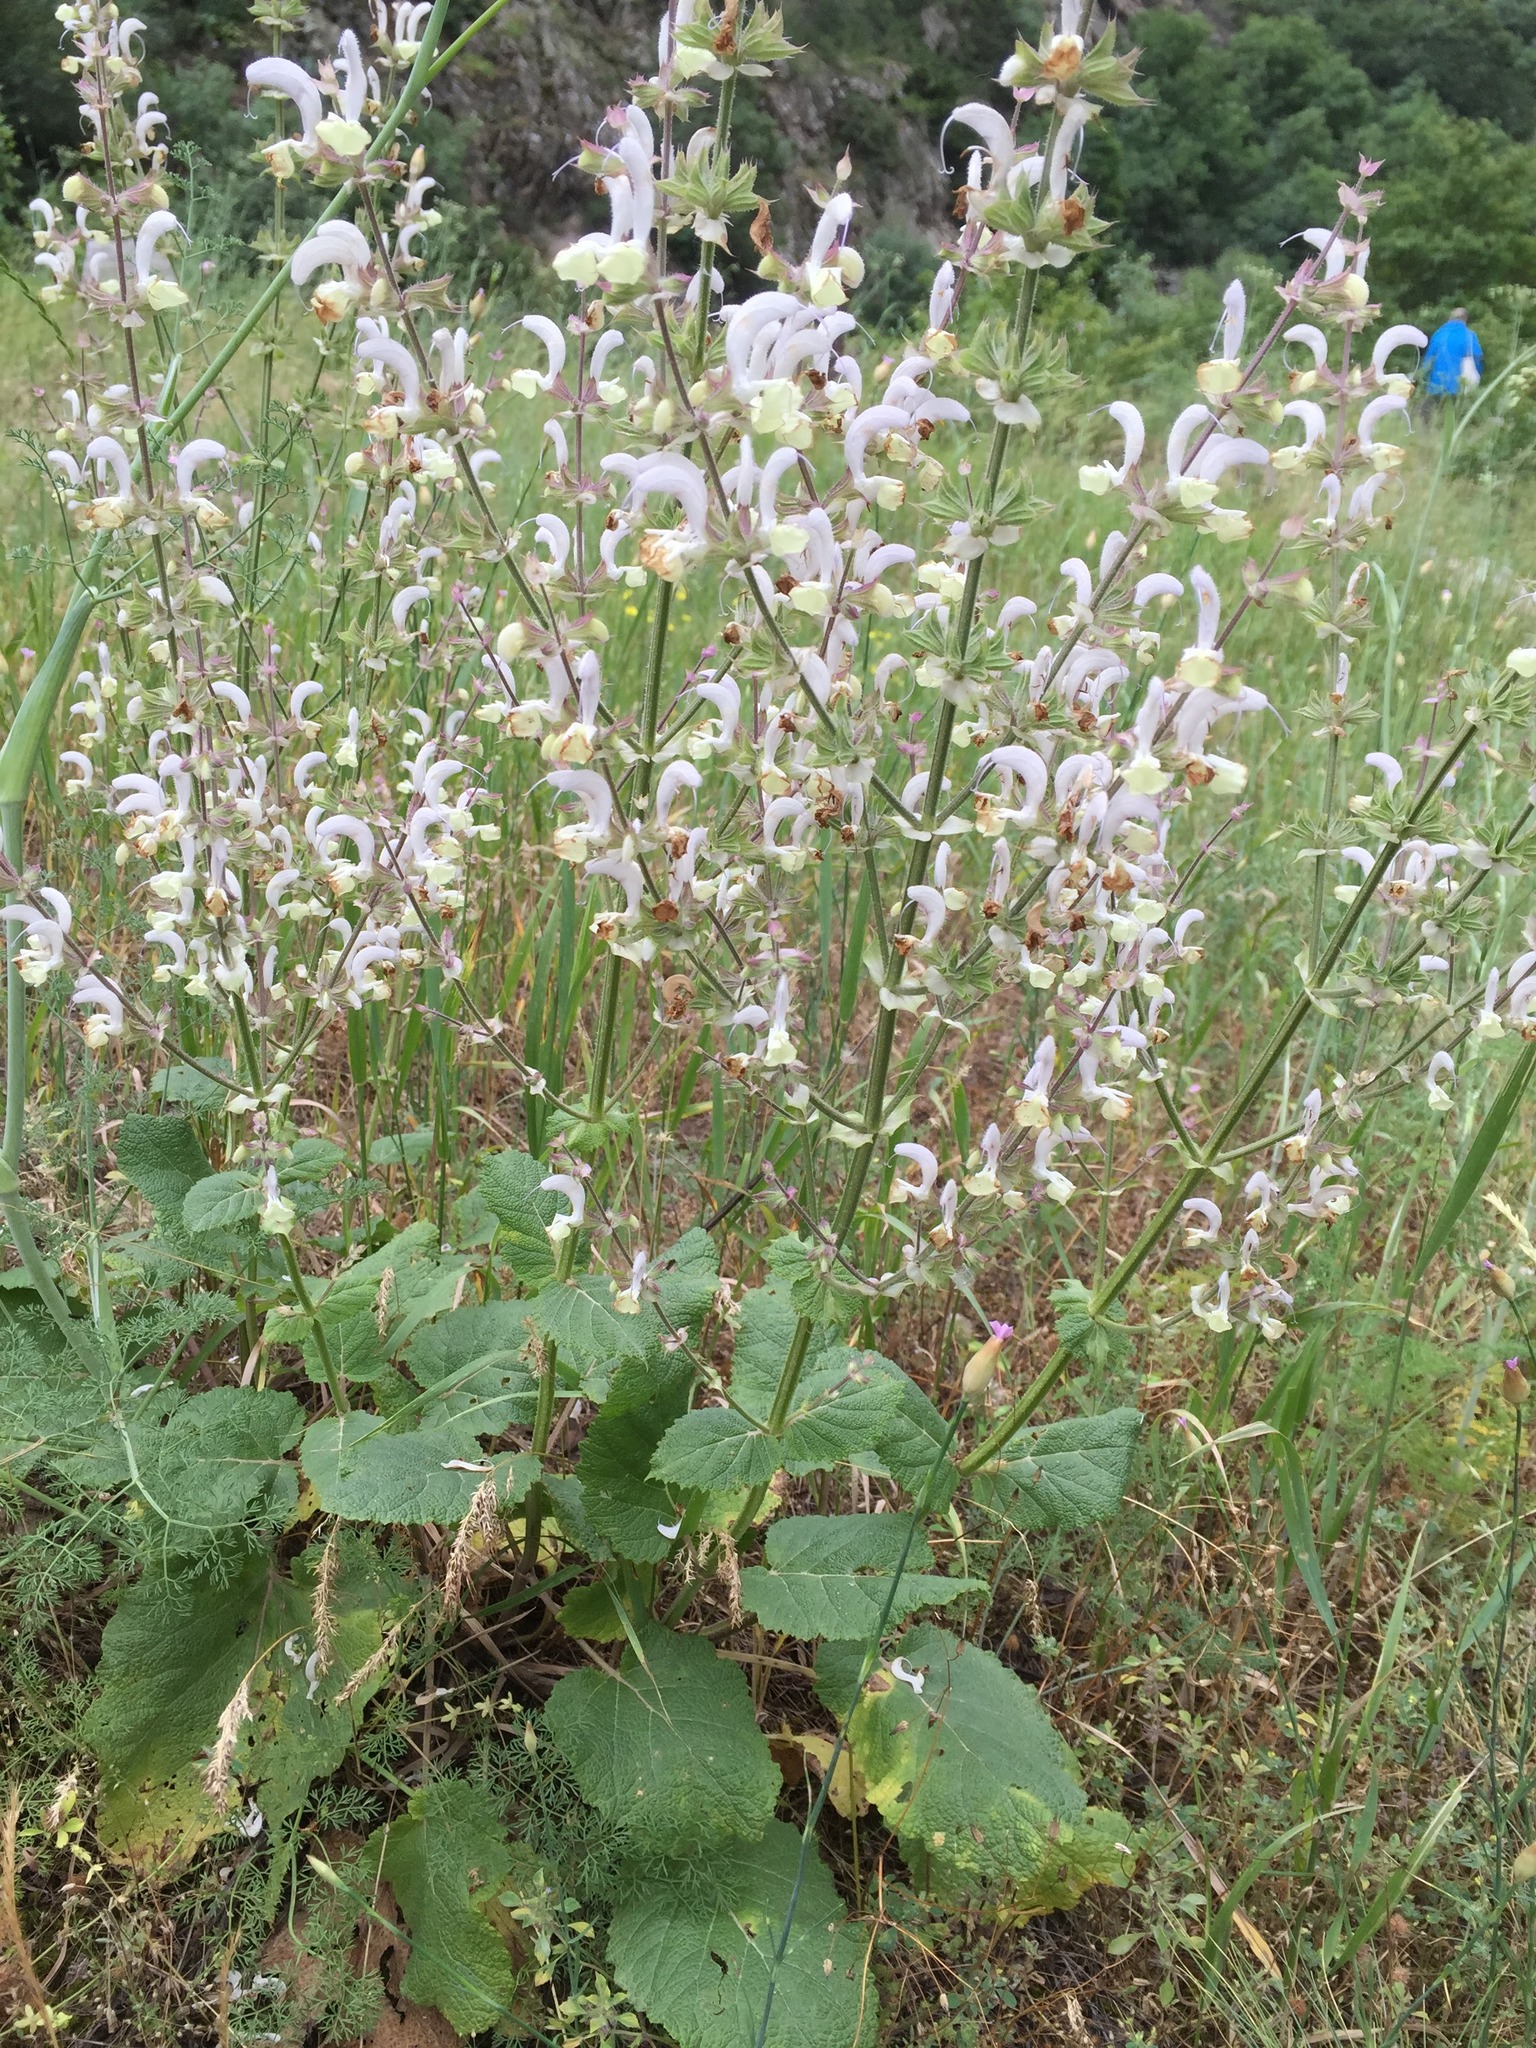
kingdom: Plantae
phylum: Tracheophyta
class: Magnoliopsida
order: Lamiales
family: Lamiaceae
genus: Salvia
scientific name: Salvia sclarea
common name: Clary
